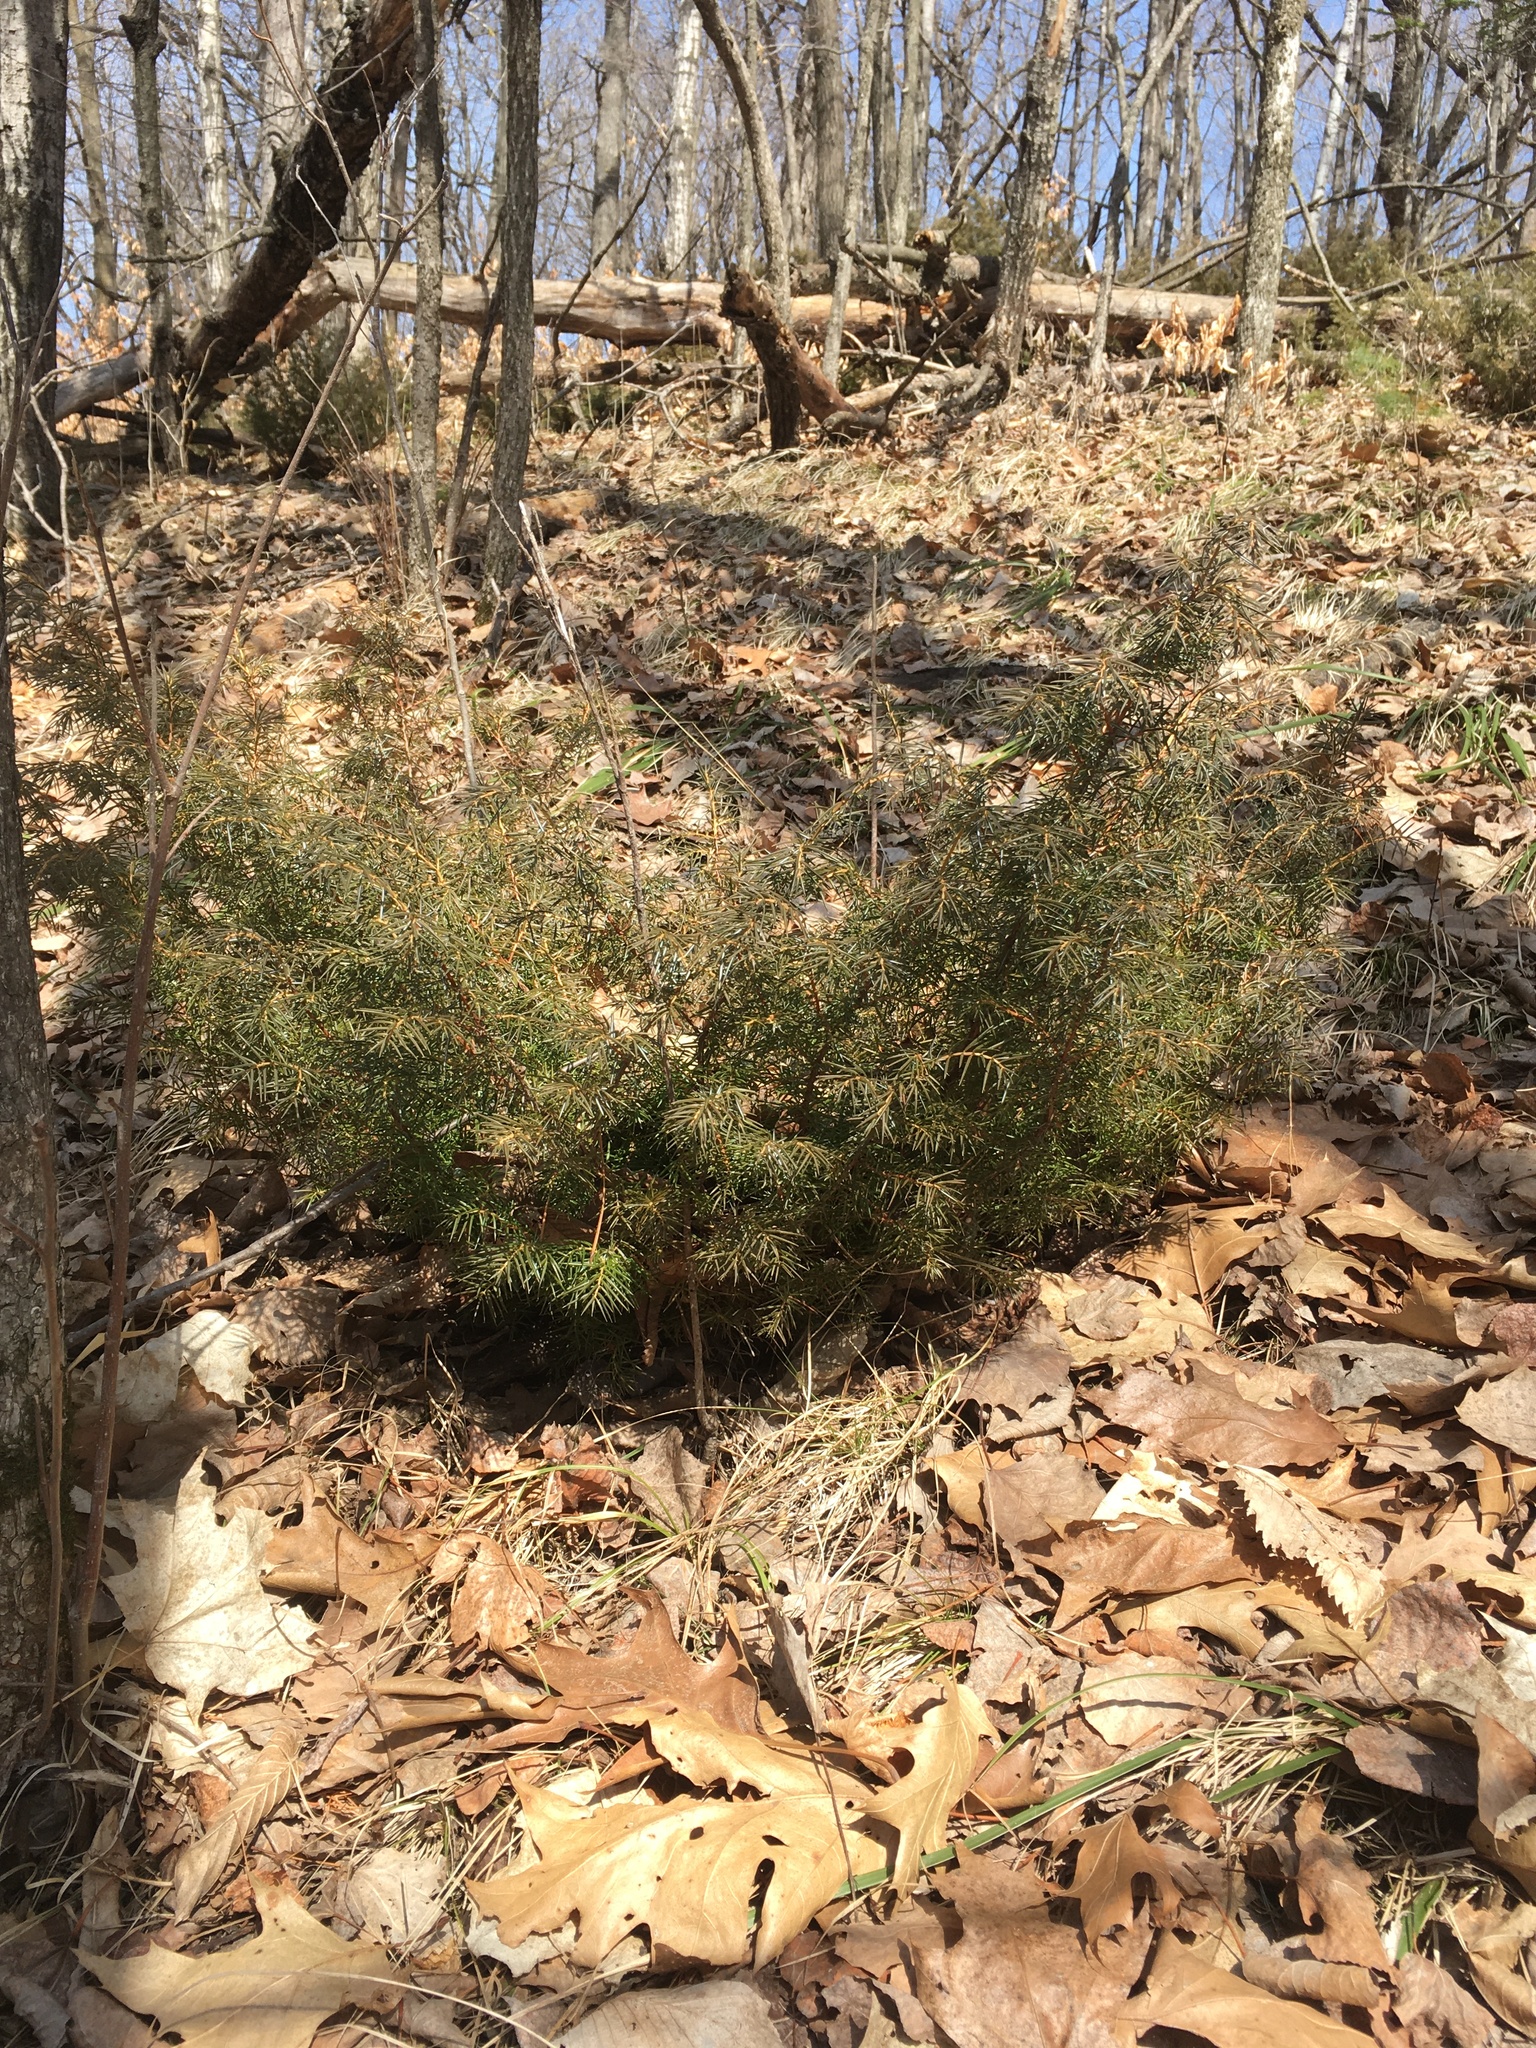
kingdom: Plantae
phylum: Tracheophyta
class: Pinopsida
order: Pinales
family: Cupressaceae
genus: Juniperus
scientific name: Juniperus communis
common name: Common juniper
